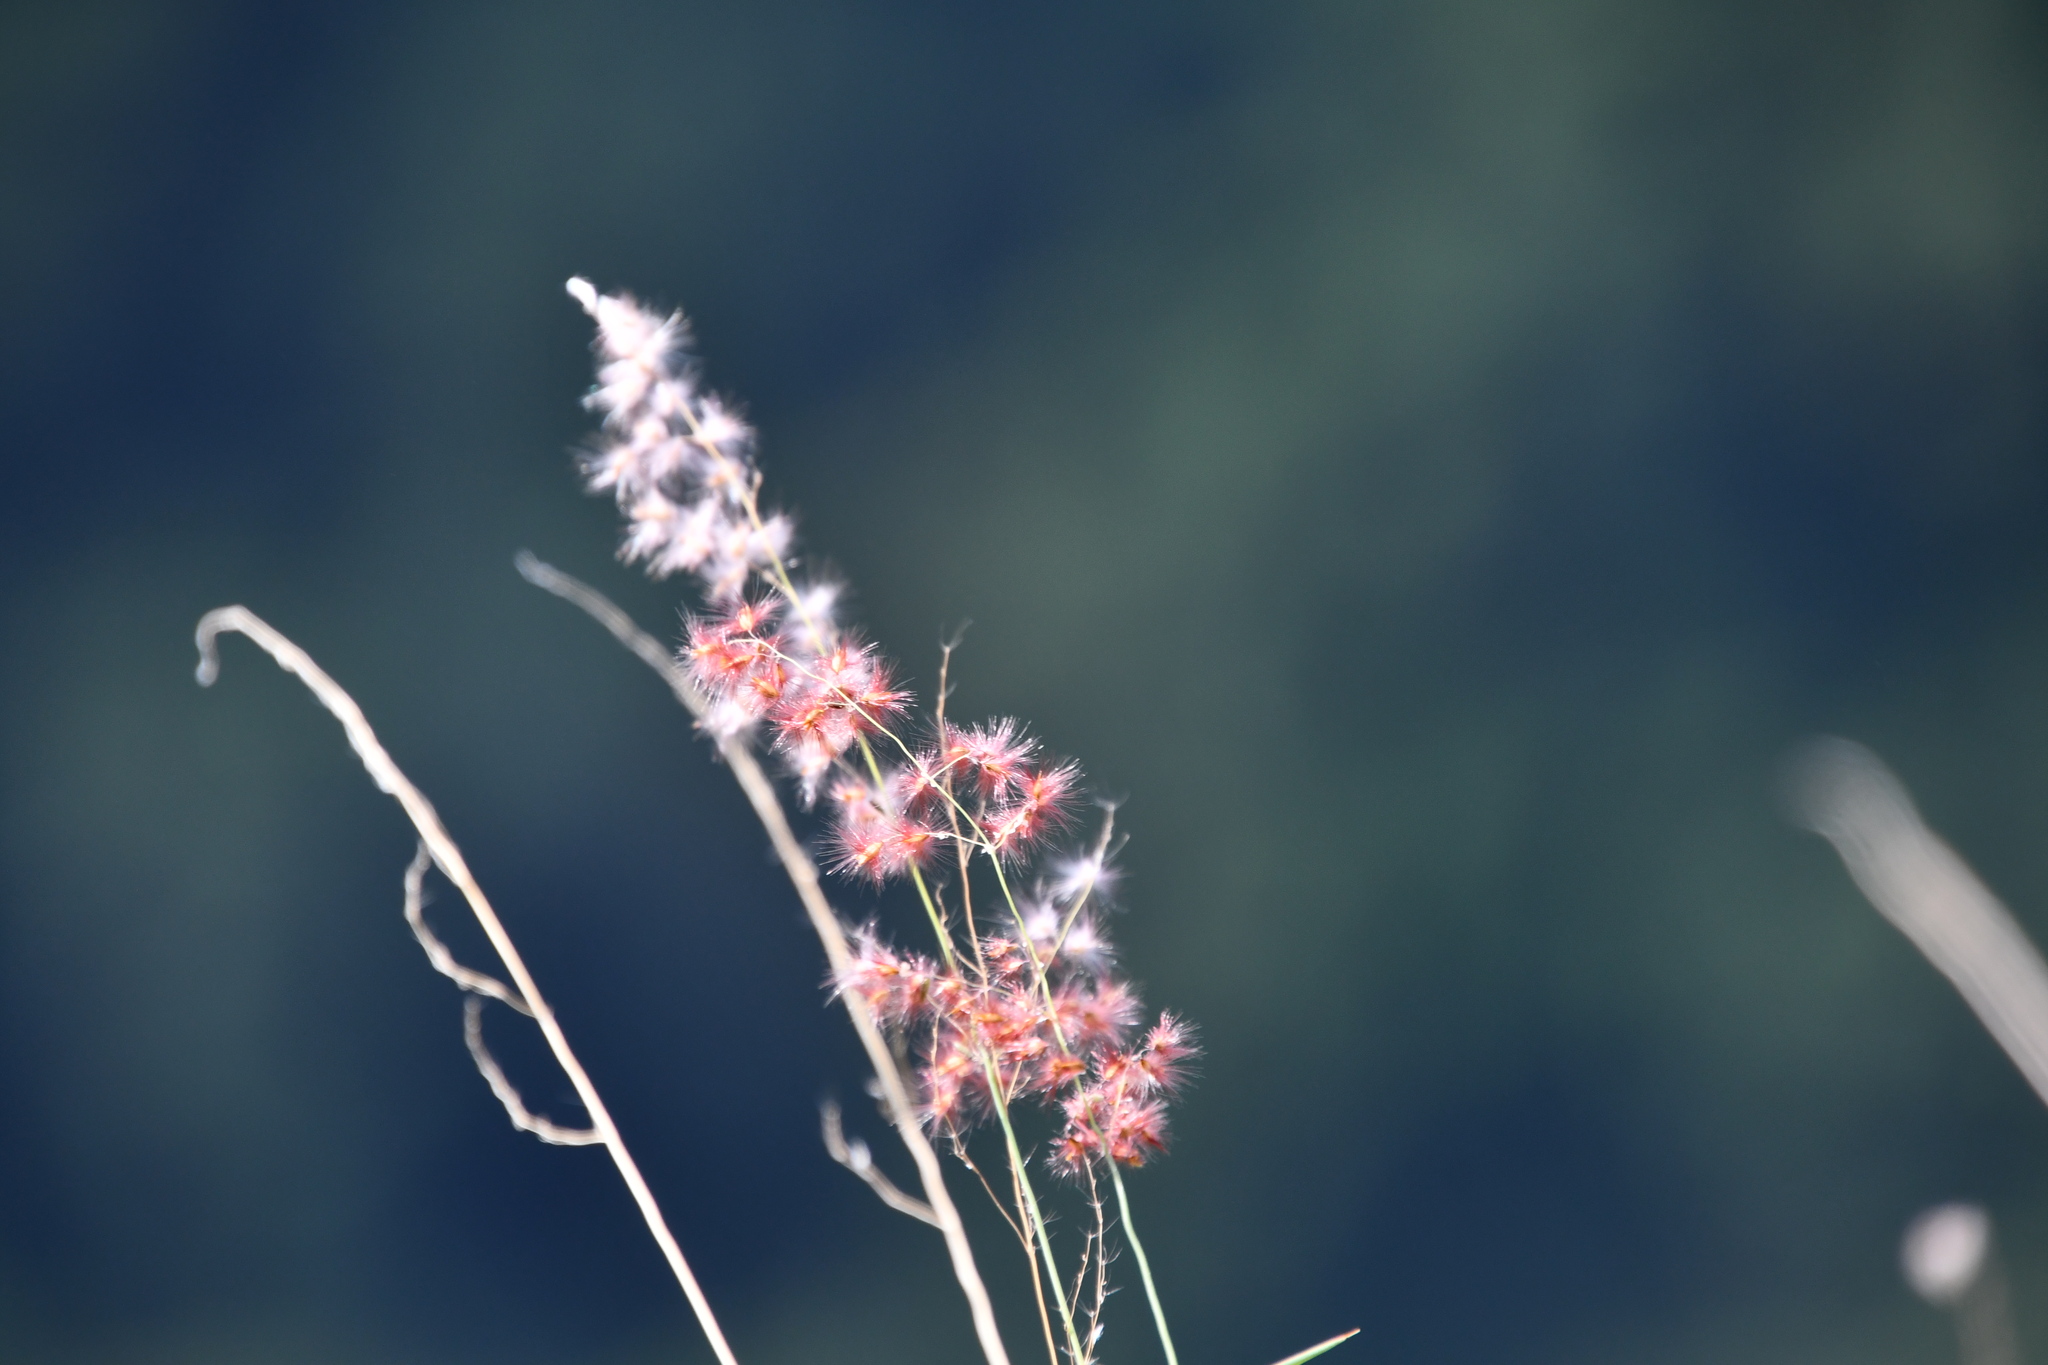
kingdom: Plantae
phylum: Tracheophyta
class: Liliopsida
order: Poales
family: Poaceae
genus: Melinis
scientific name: Melinis repens
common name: Rose natal grass
